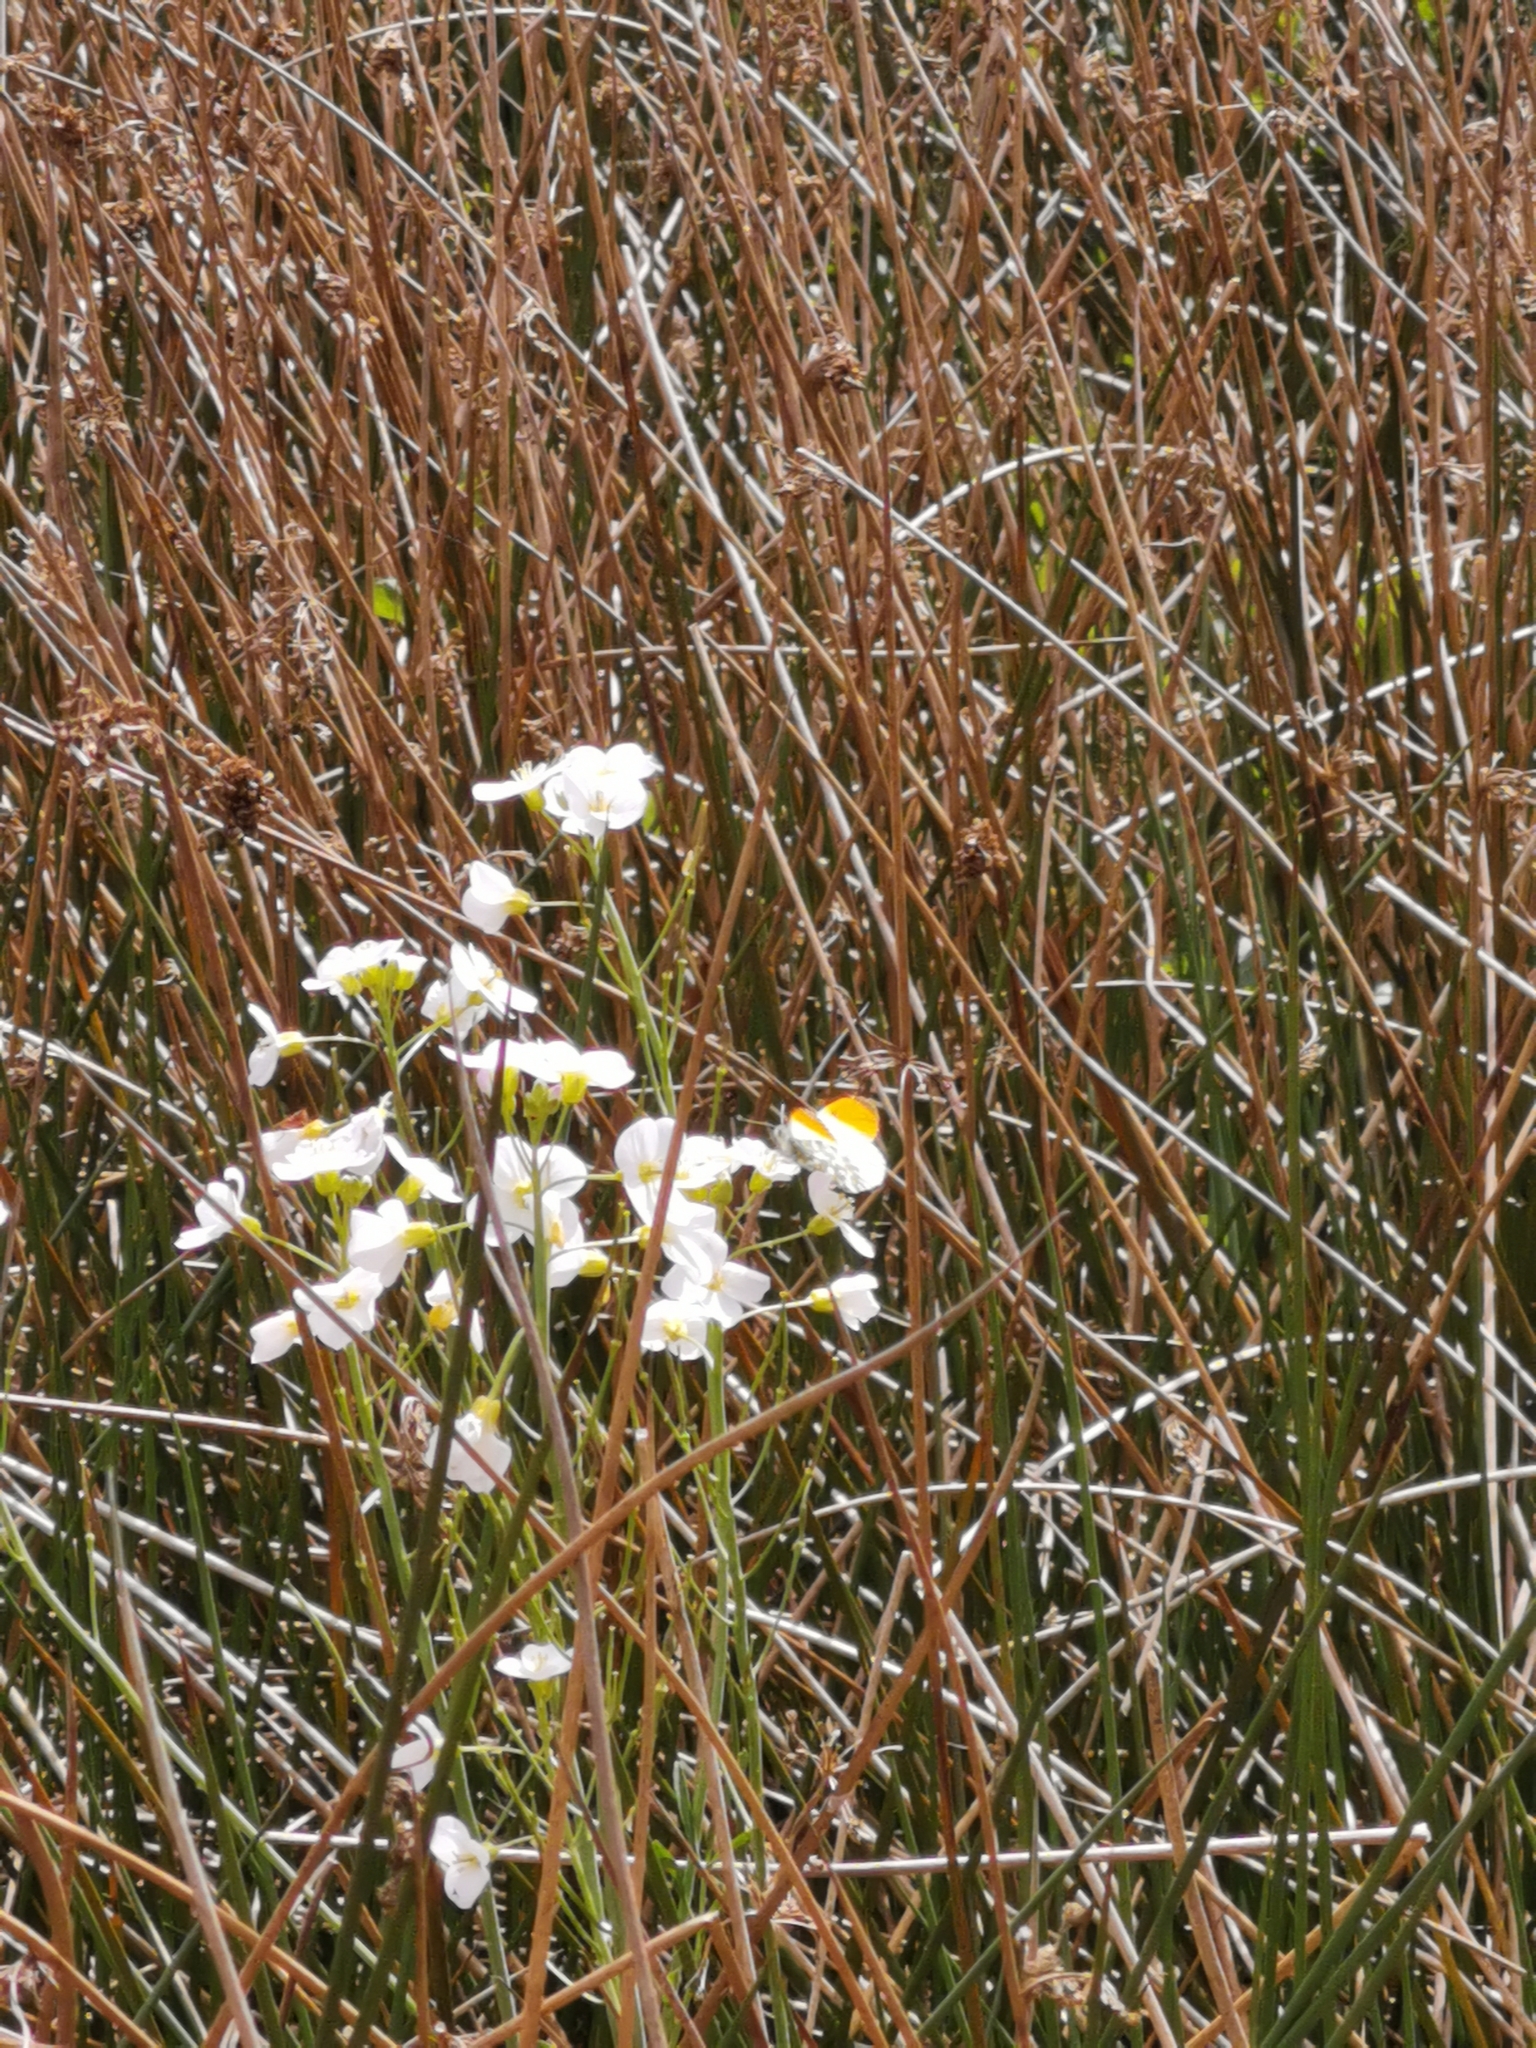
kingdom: Animalia
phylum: Arthropoda
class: Insecta
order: Lepidoptera
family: Pieridae
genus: Anthocharis
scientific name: Anthocharis cardamines
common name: Orange-tip
